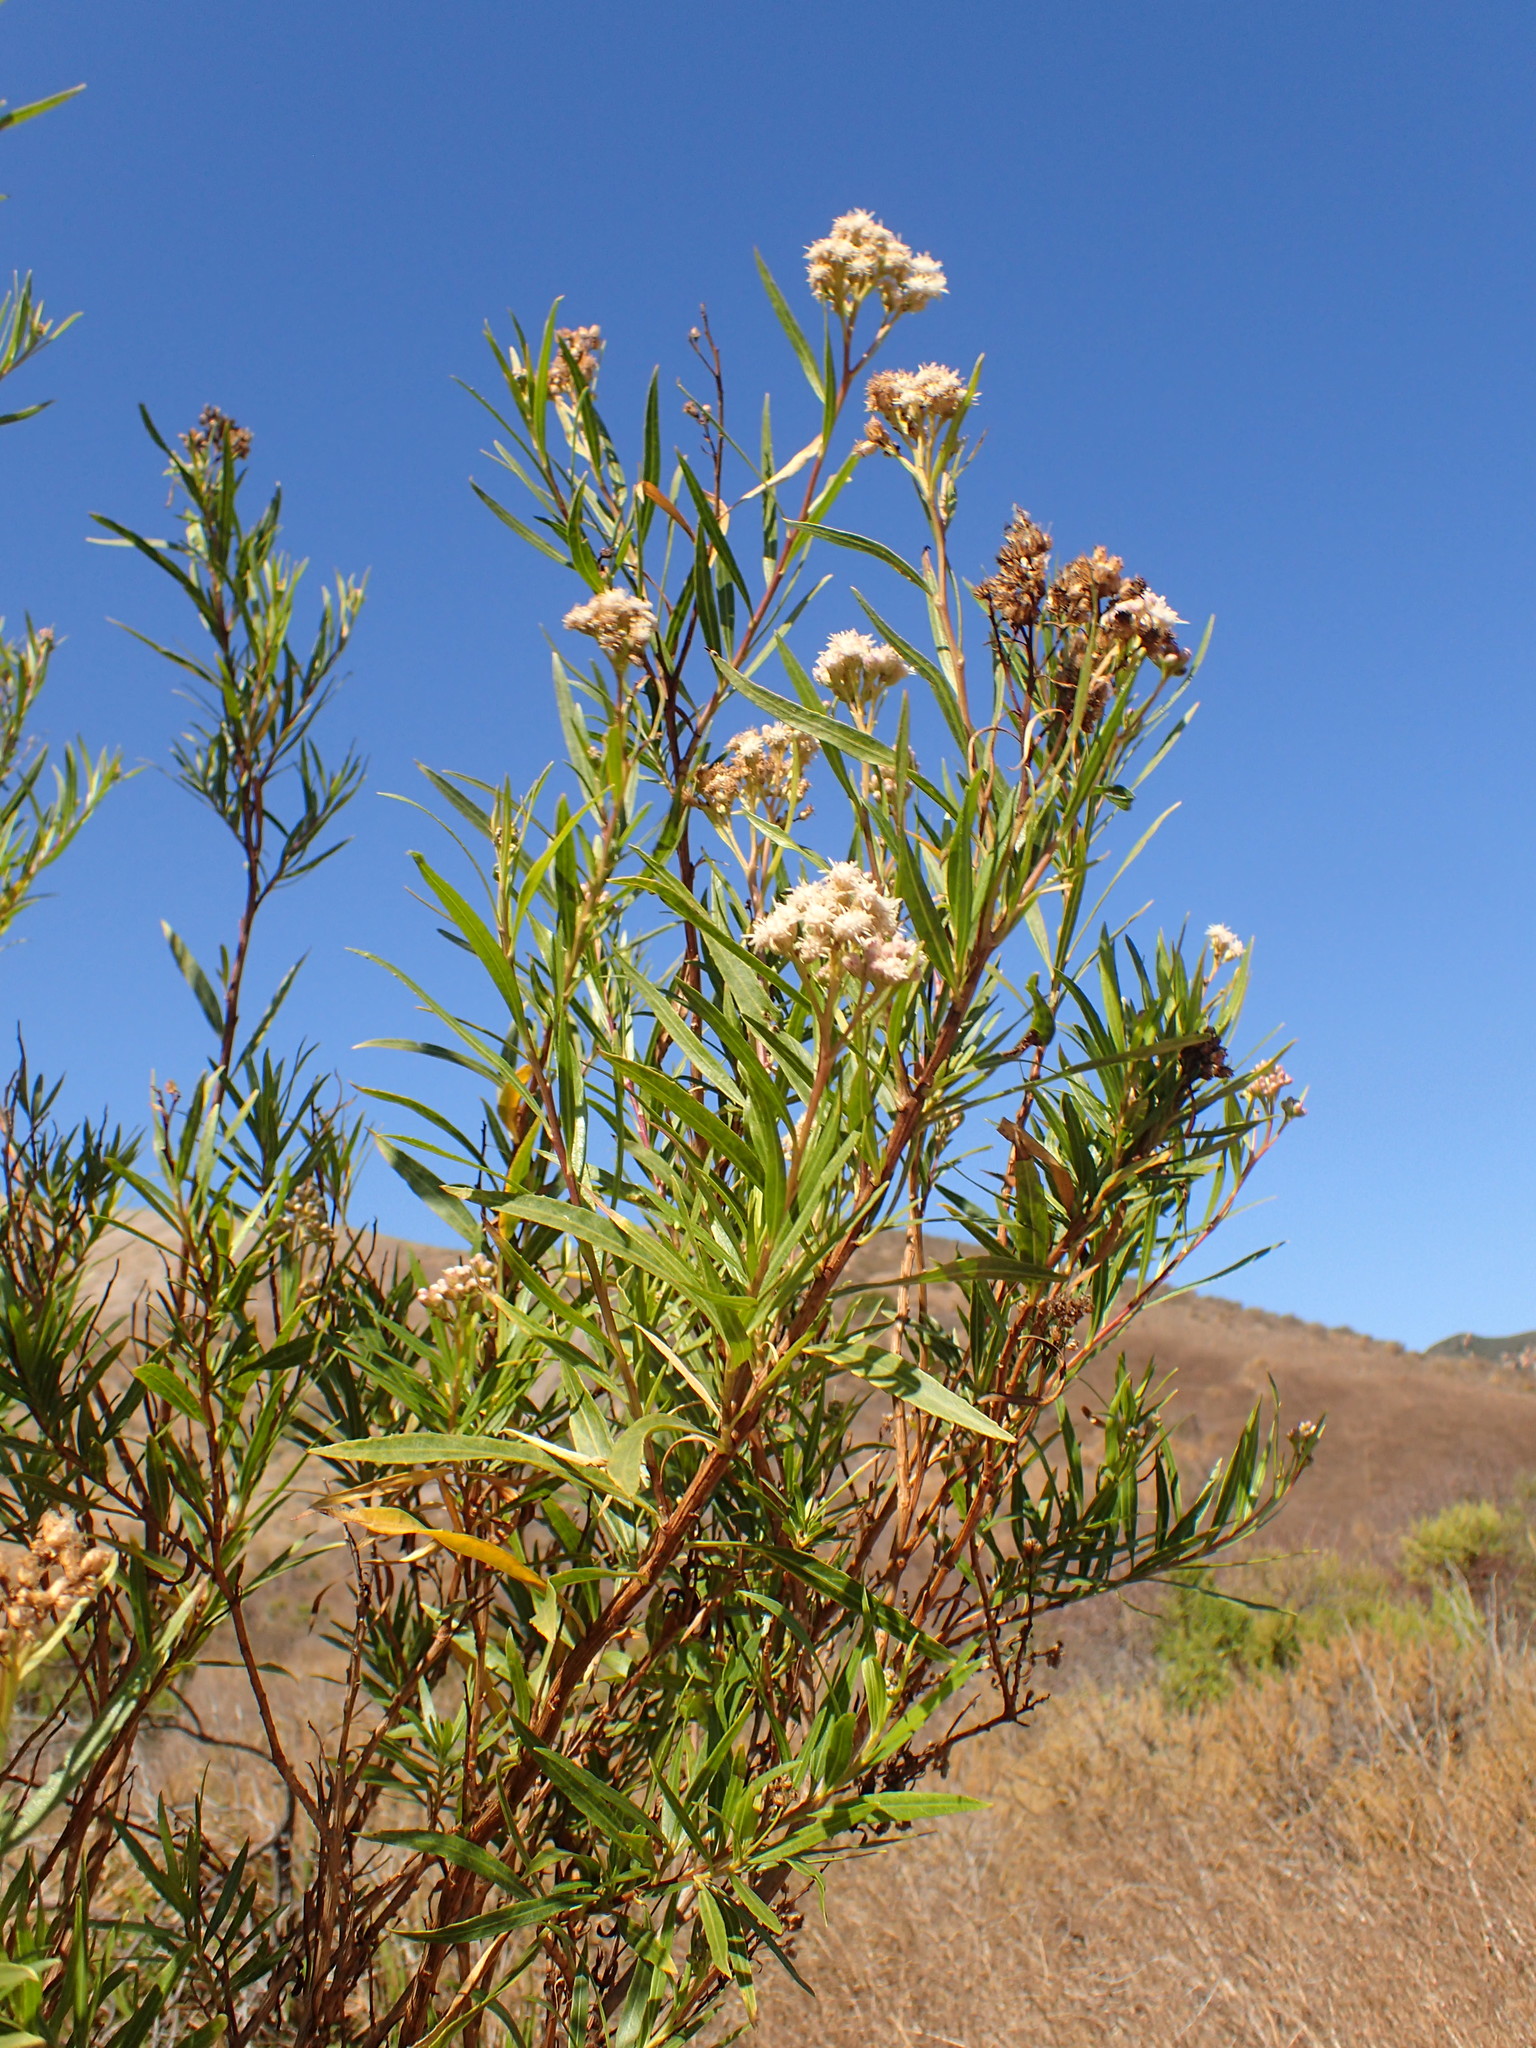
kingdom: Plantae
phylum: Tracheophyta
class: Magnoliopsida
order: Asterales
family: Asteraceae
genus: Baccharis
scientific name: Baccharis salicifolia
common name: Sticky baccharis
